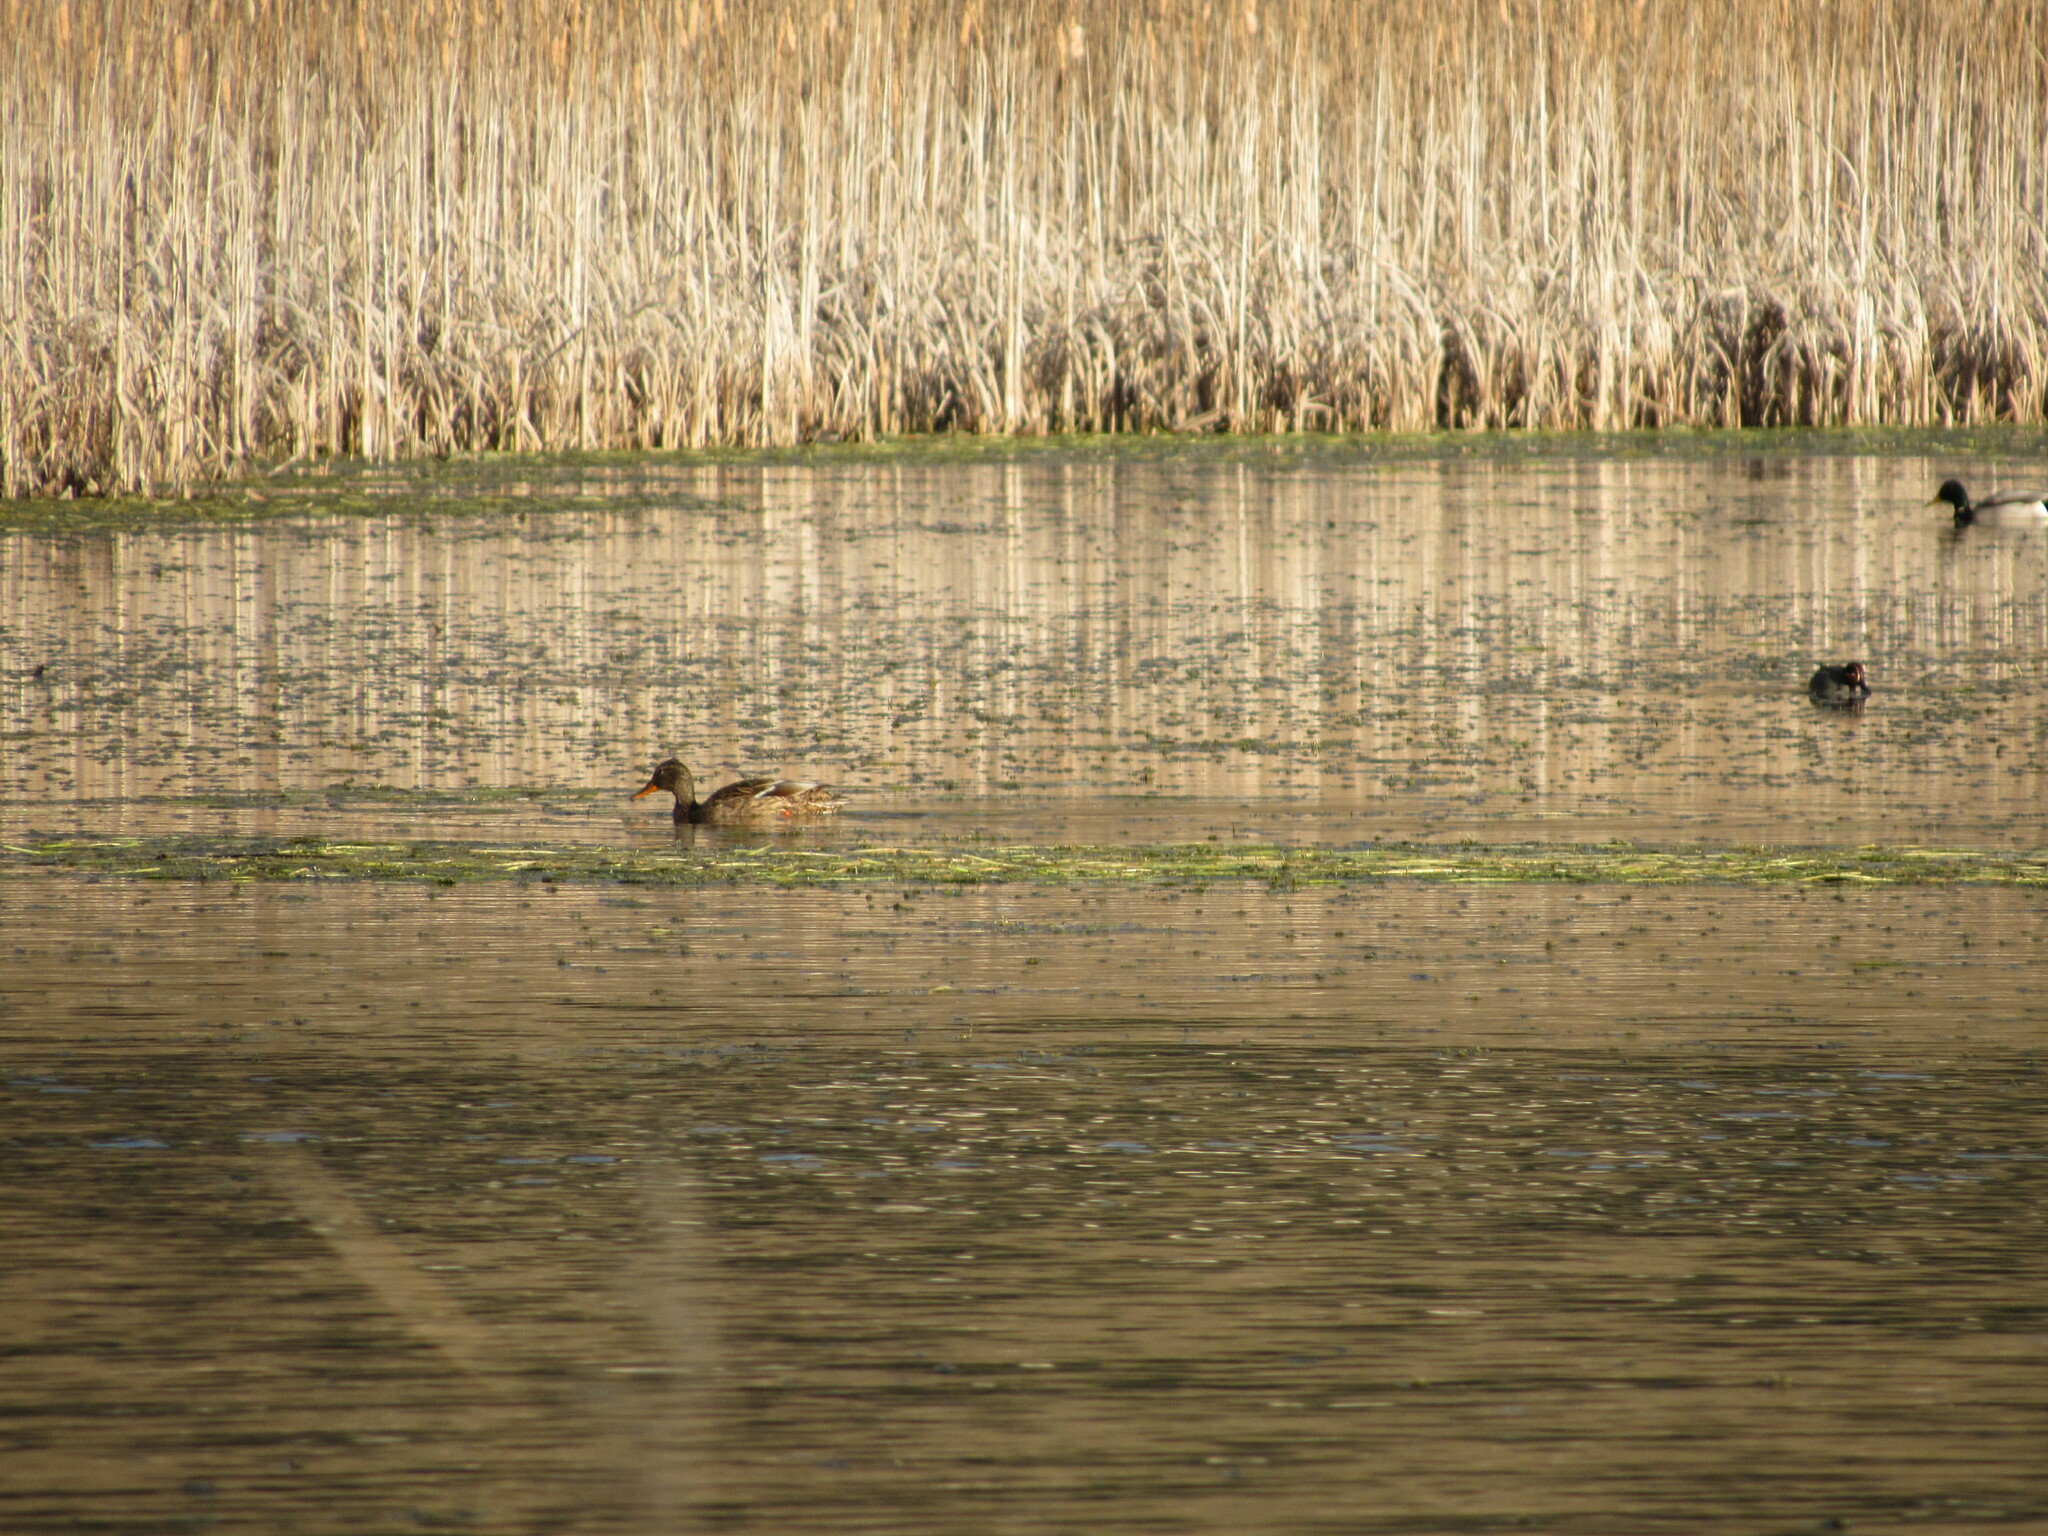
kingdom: Animalia
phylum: Chordata
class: Aves
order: Anseriformes
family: Anatidae
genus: Anas
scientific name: Anas platyrhynchos
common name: Mallard
